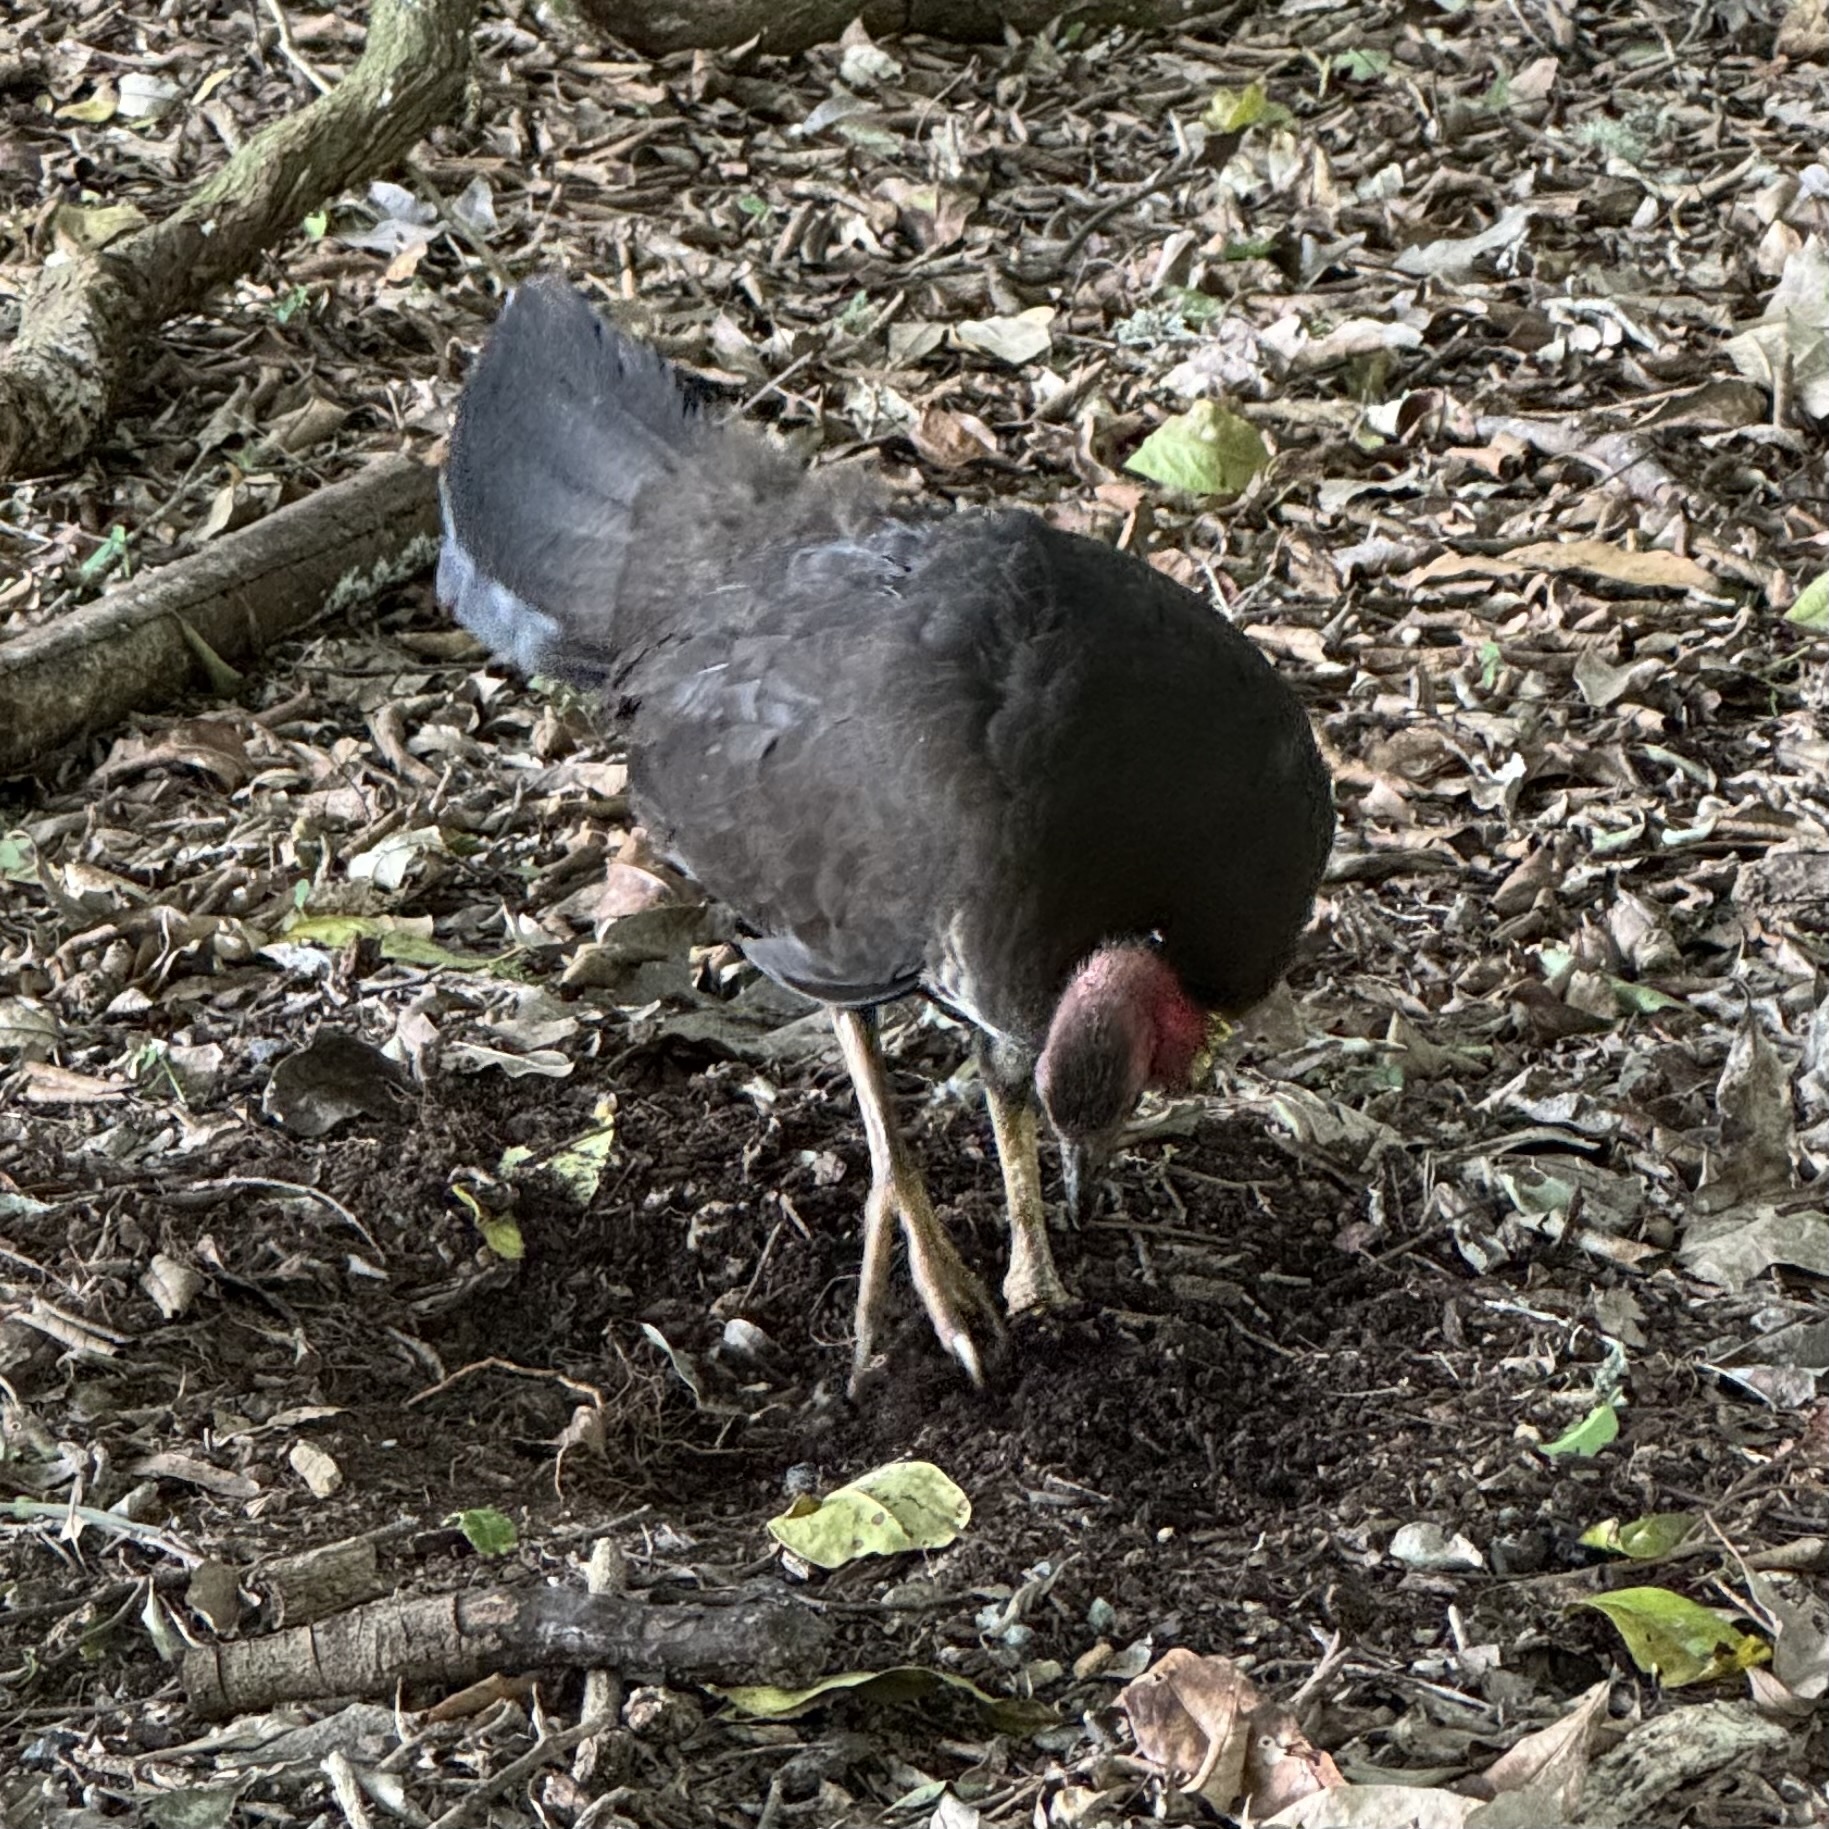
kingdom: Animalia
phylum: Chordata
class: Aves
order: Galliformes
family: Megapodiidae
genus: Alectura
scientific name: Alectura lathami
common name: Australian brushturkey
